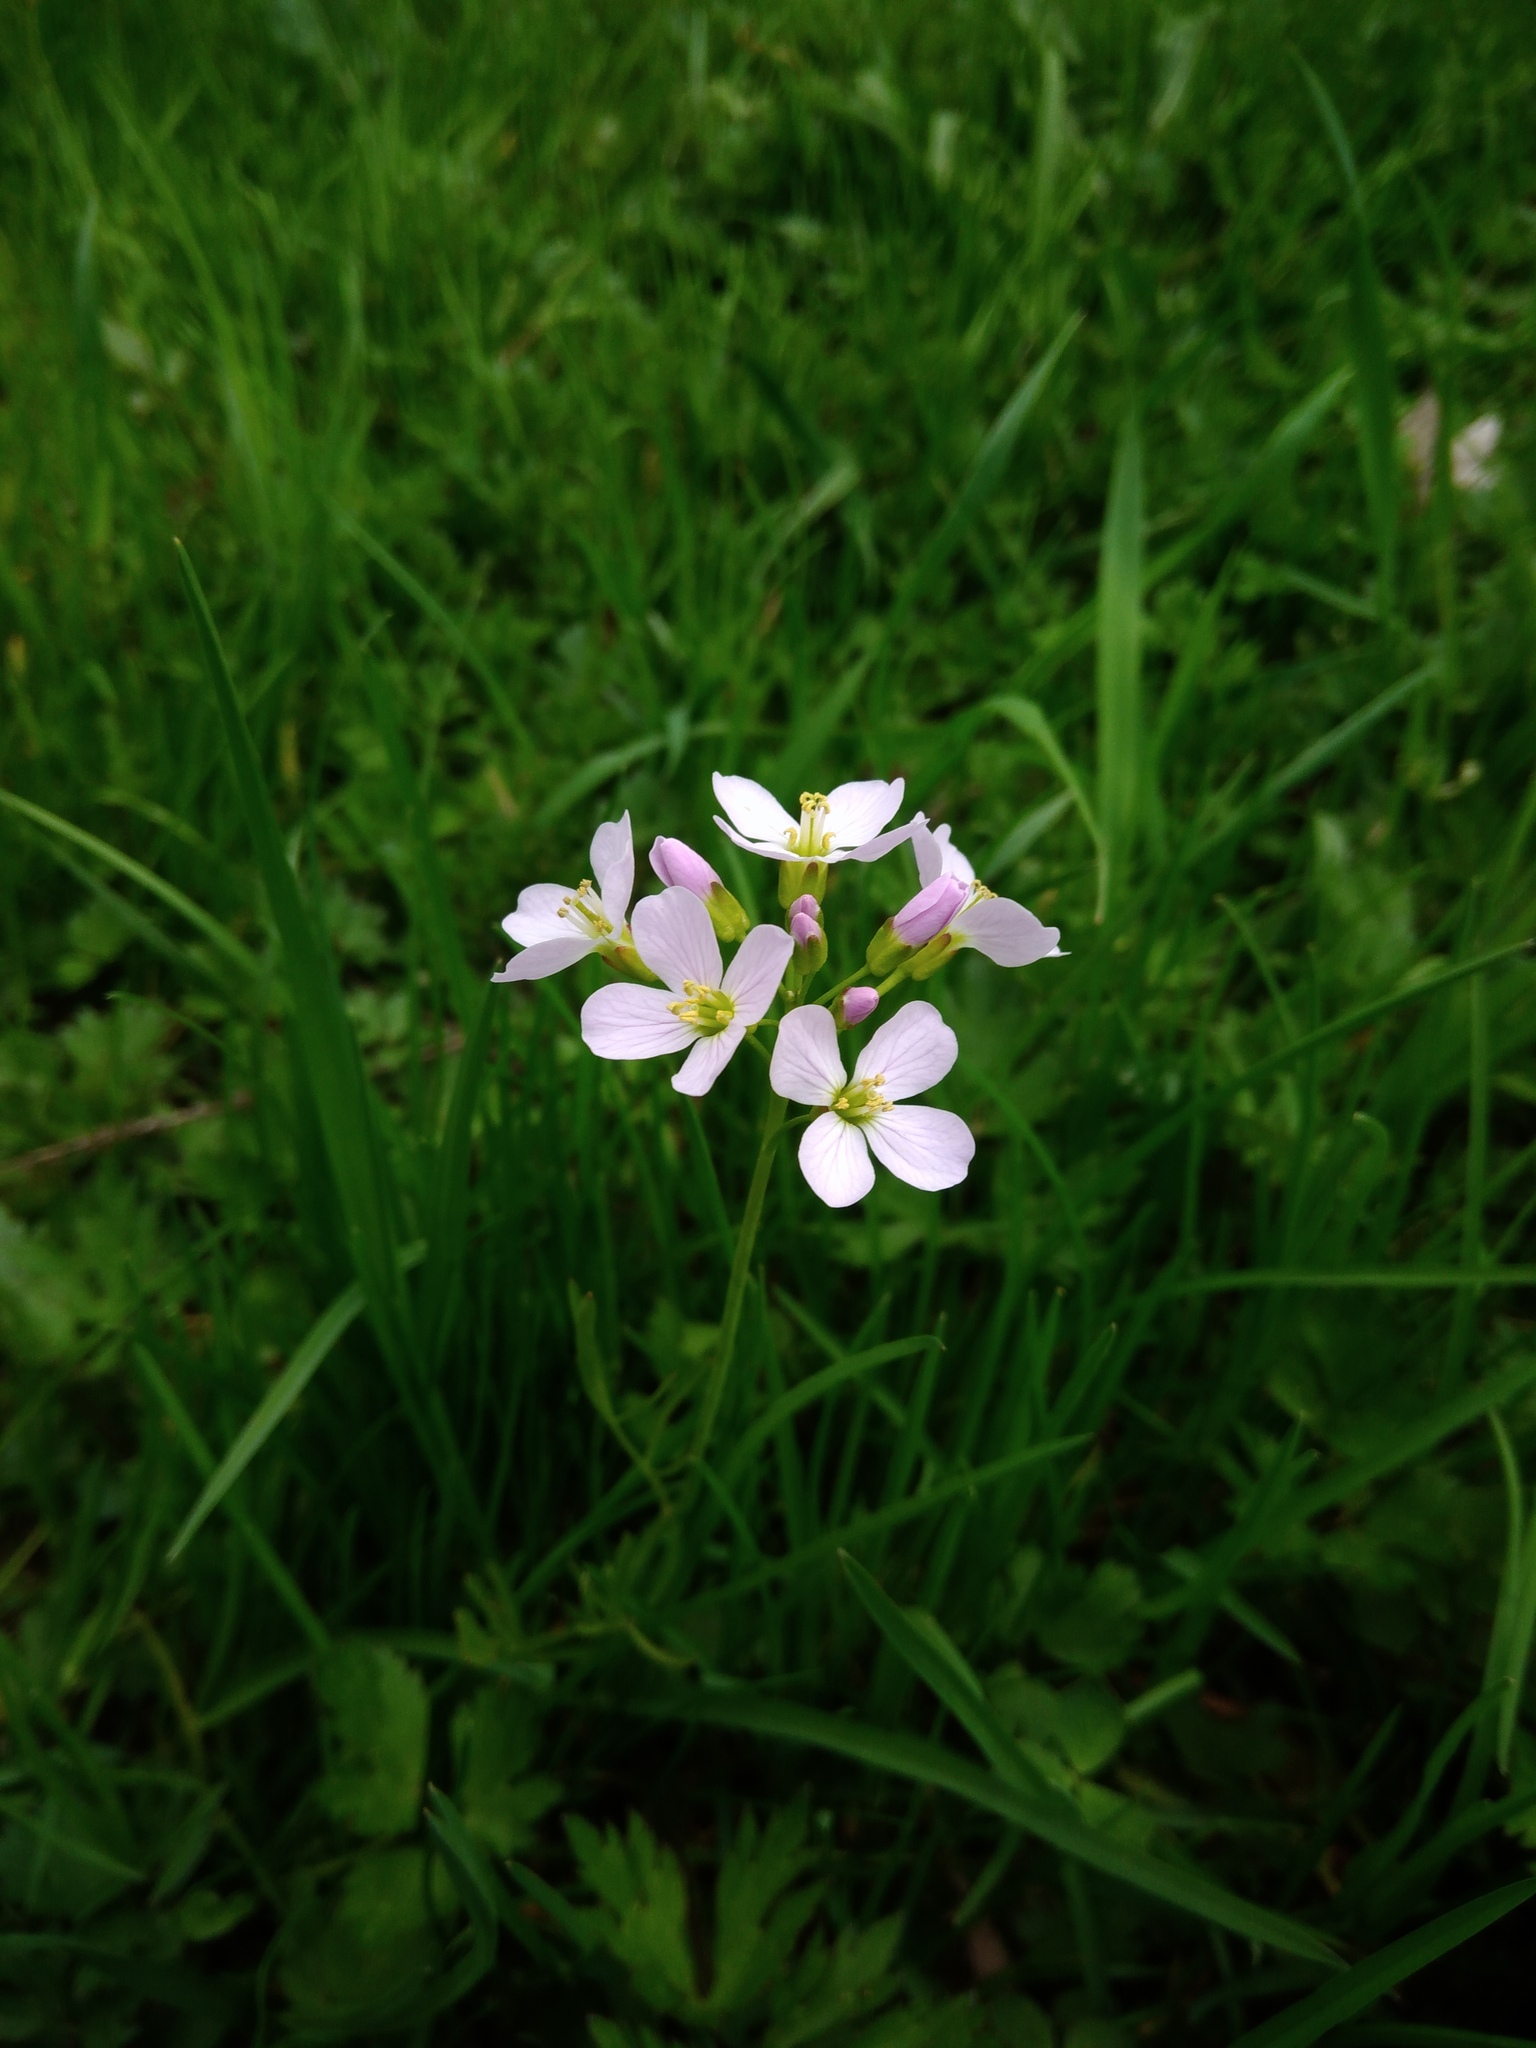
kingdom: Plantae
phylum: Tracheophyta
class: Magnoliopsida
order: Brassicales
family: Brassicaceae
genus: Cardamine
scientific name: Cardamine pratensis
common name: Cuckoo flower
